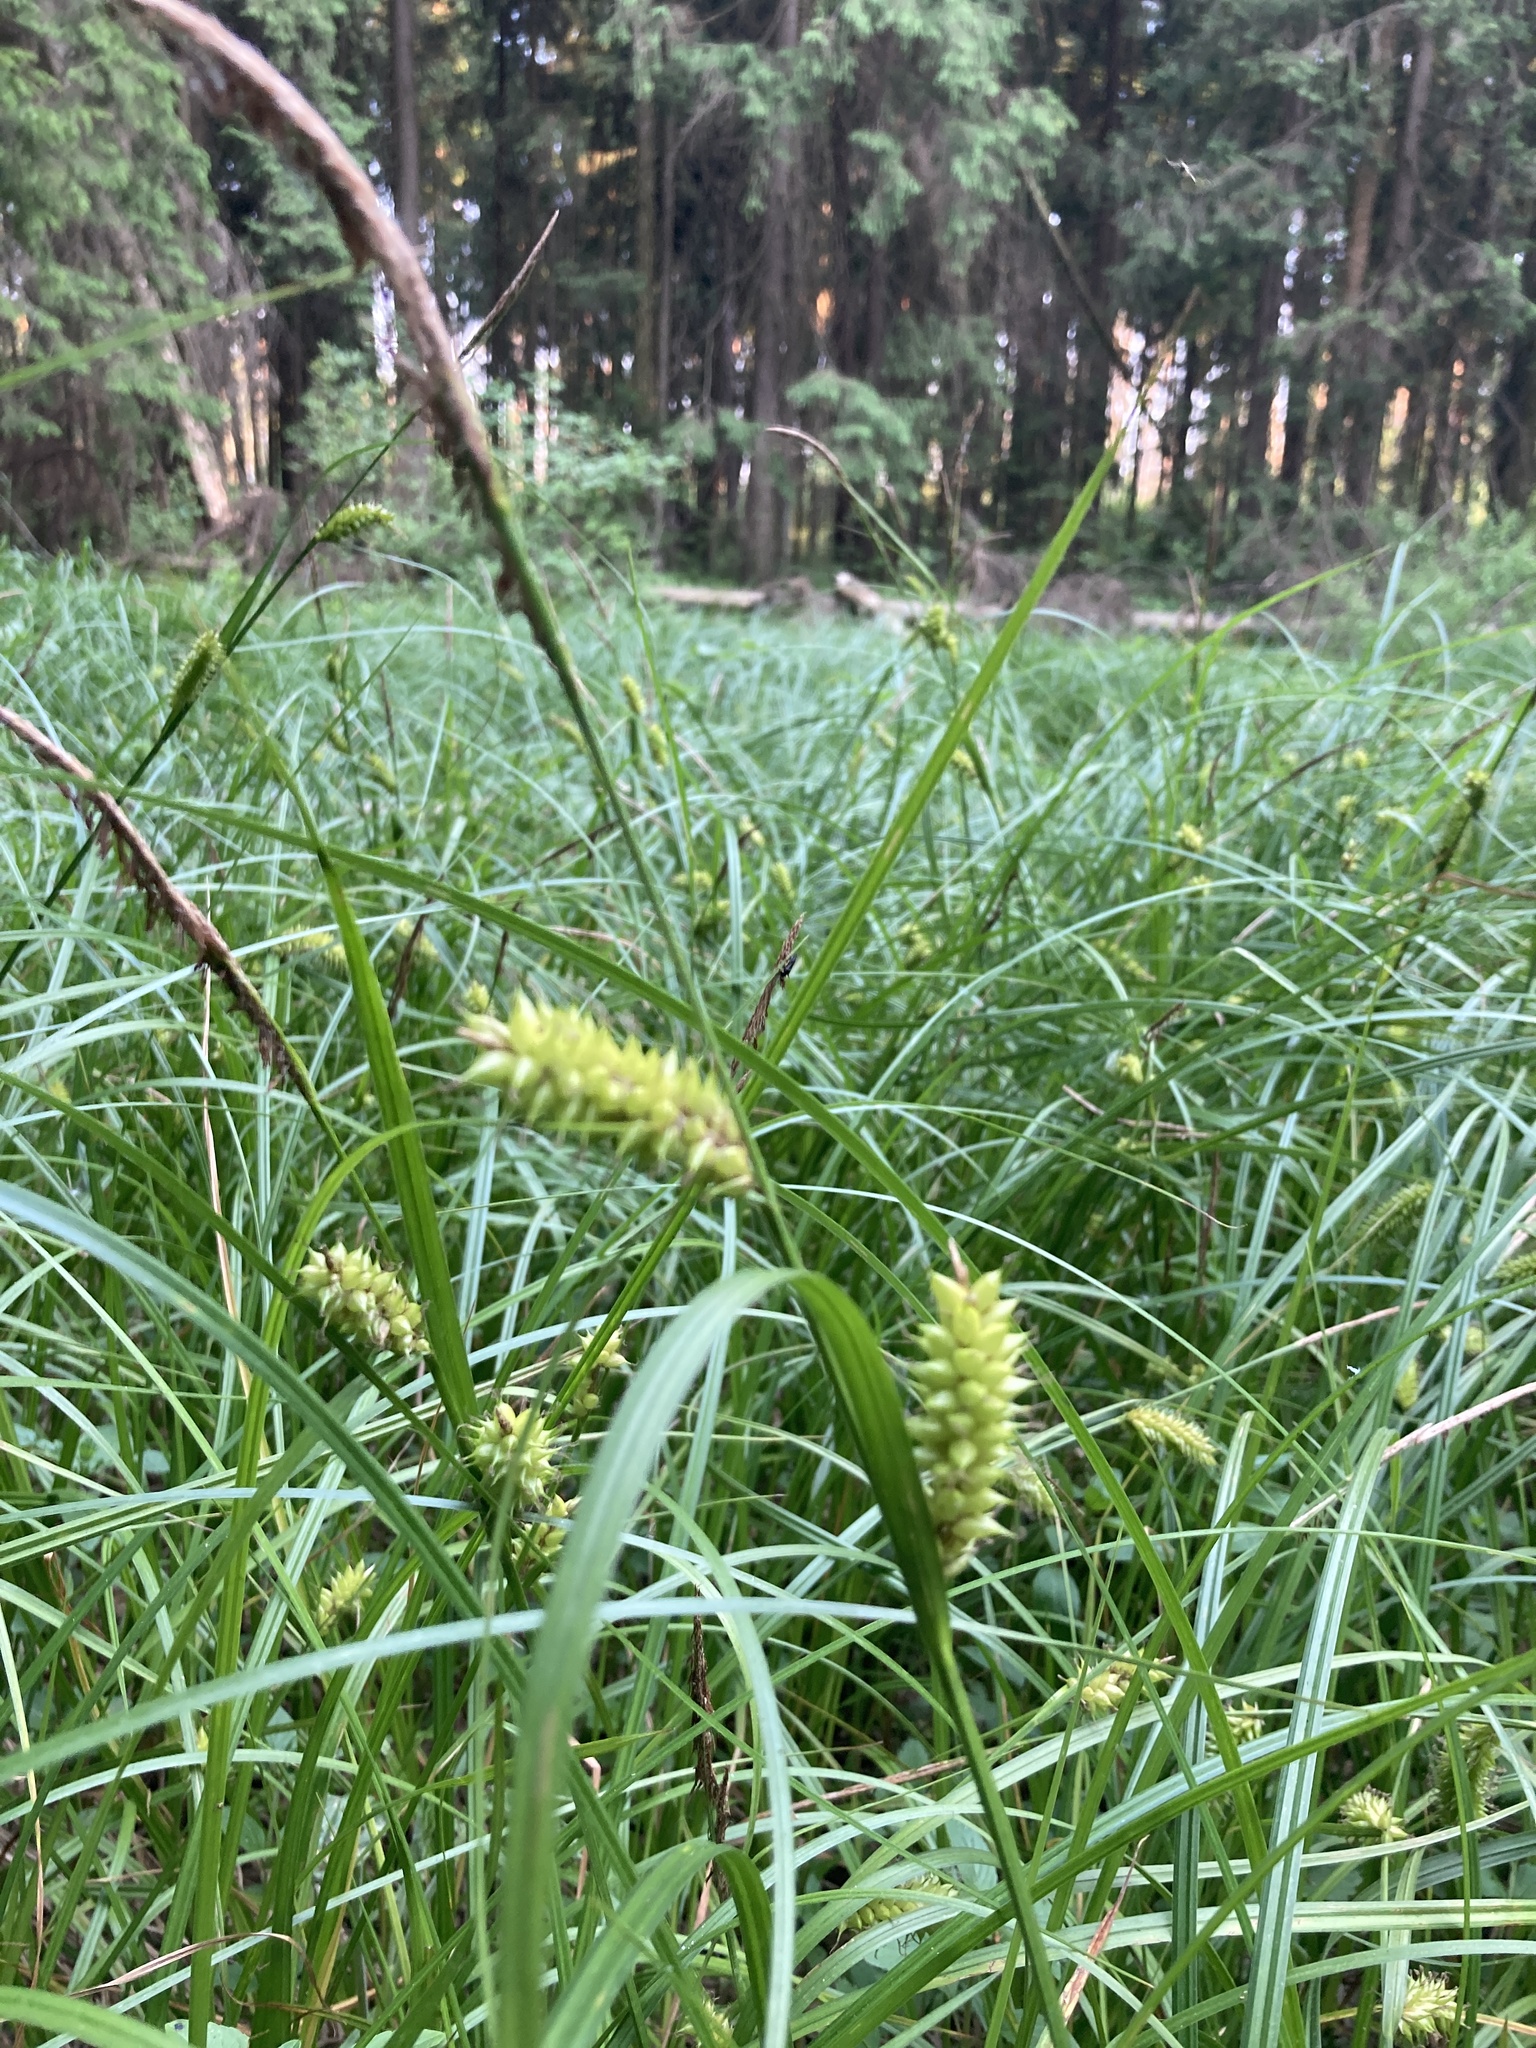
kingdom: Plantae
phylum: Tracheophyta
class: Liliopsida
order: Poales
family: Cyperaceae
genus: Carex
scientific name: Carex vesicaria
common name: Bladder-sedge
